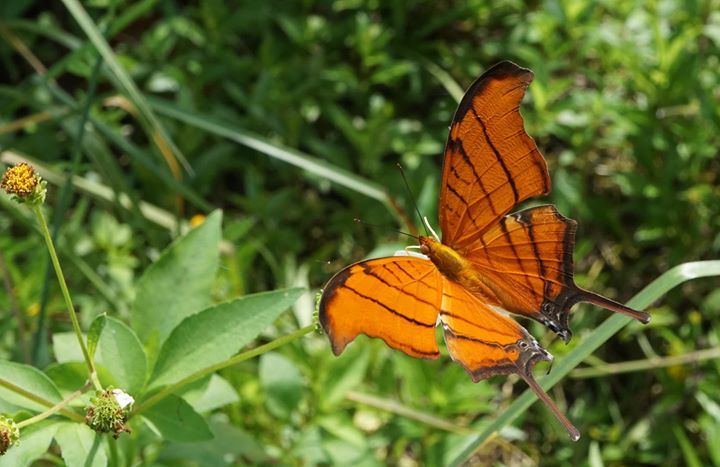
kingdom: Animalia
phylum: Arthropoda
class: Insecta
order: Lepidoptera
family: Nymphalidae
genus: Marpesia
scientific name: Marpesia petreus
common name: Red dagger wing
